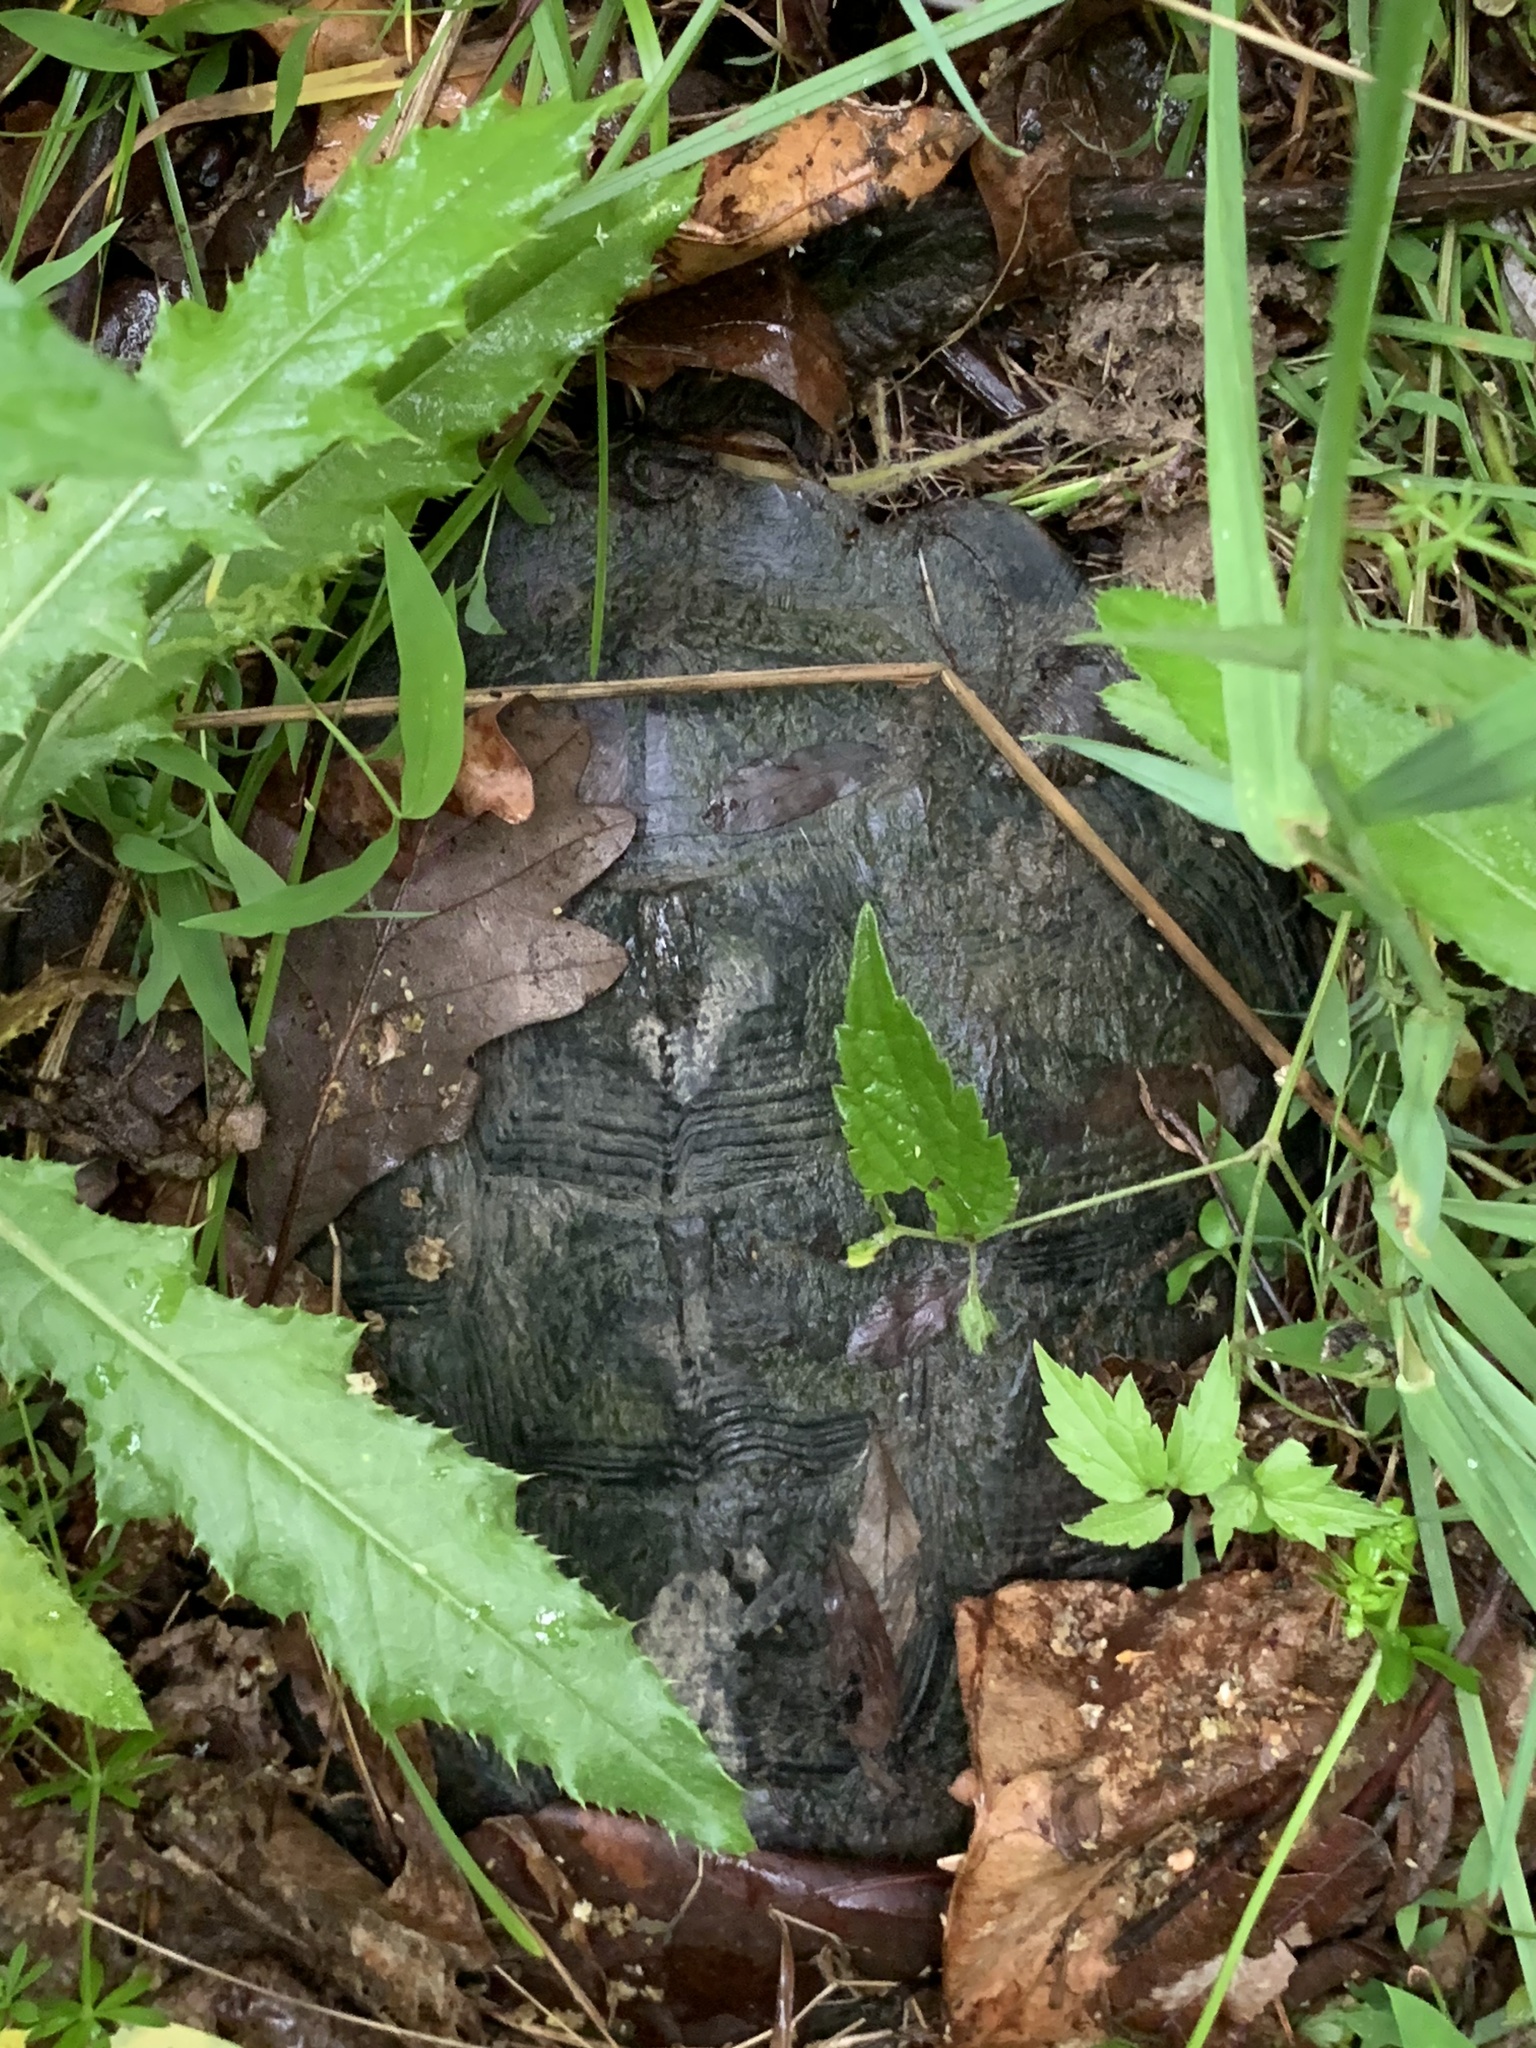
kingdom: Animalia
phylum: Chordata
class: Testudines
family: Chelydridae
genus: Chelydra
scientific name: Chelydra serpentina
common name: Common snapping turtle
